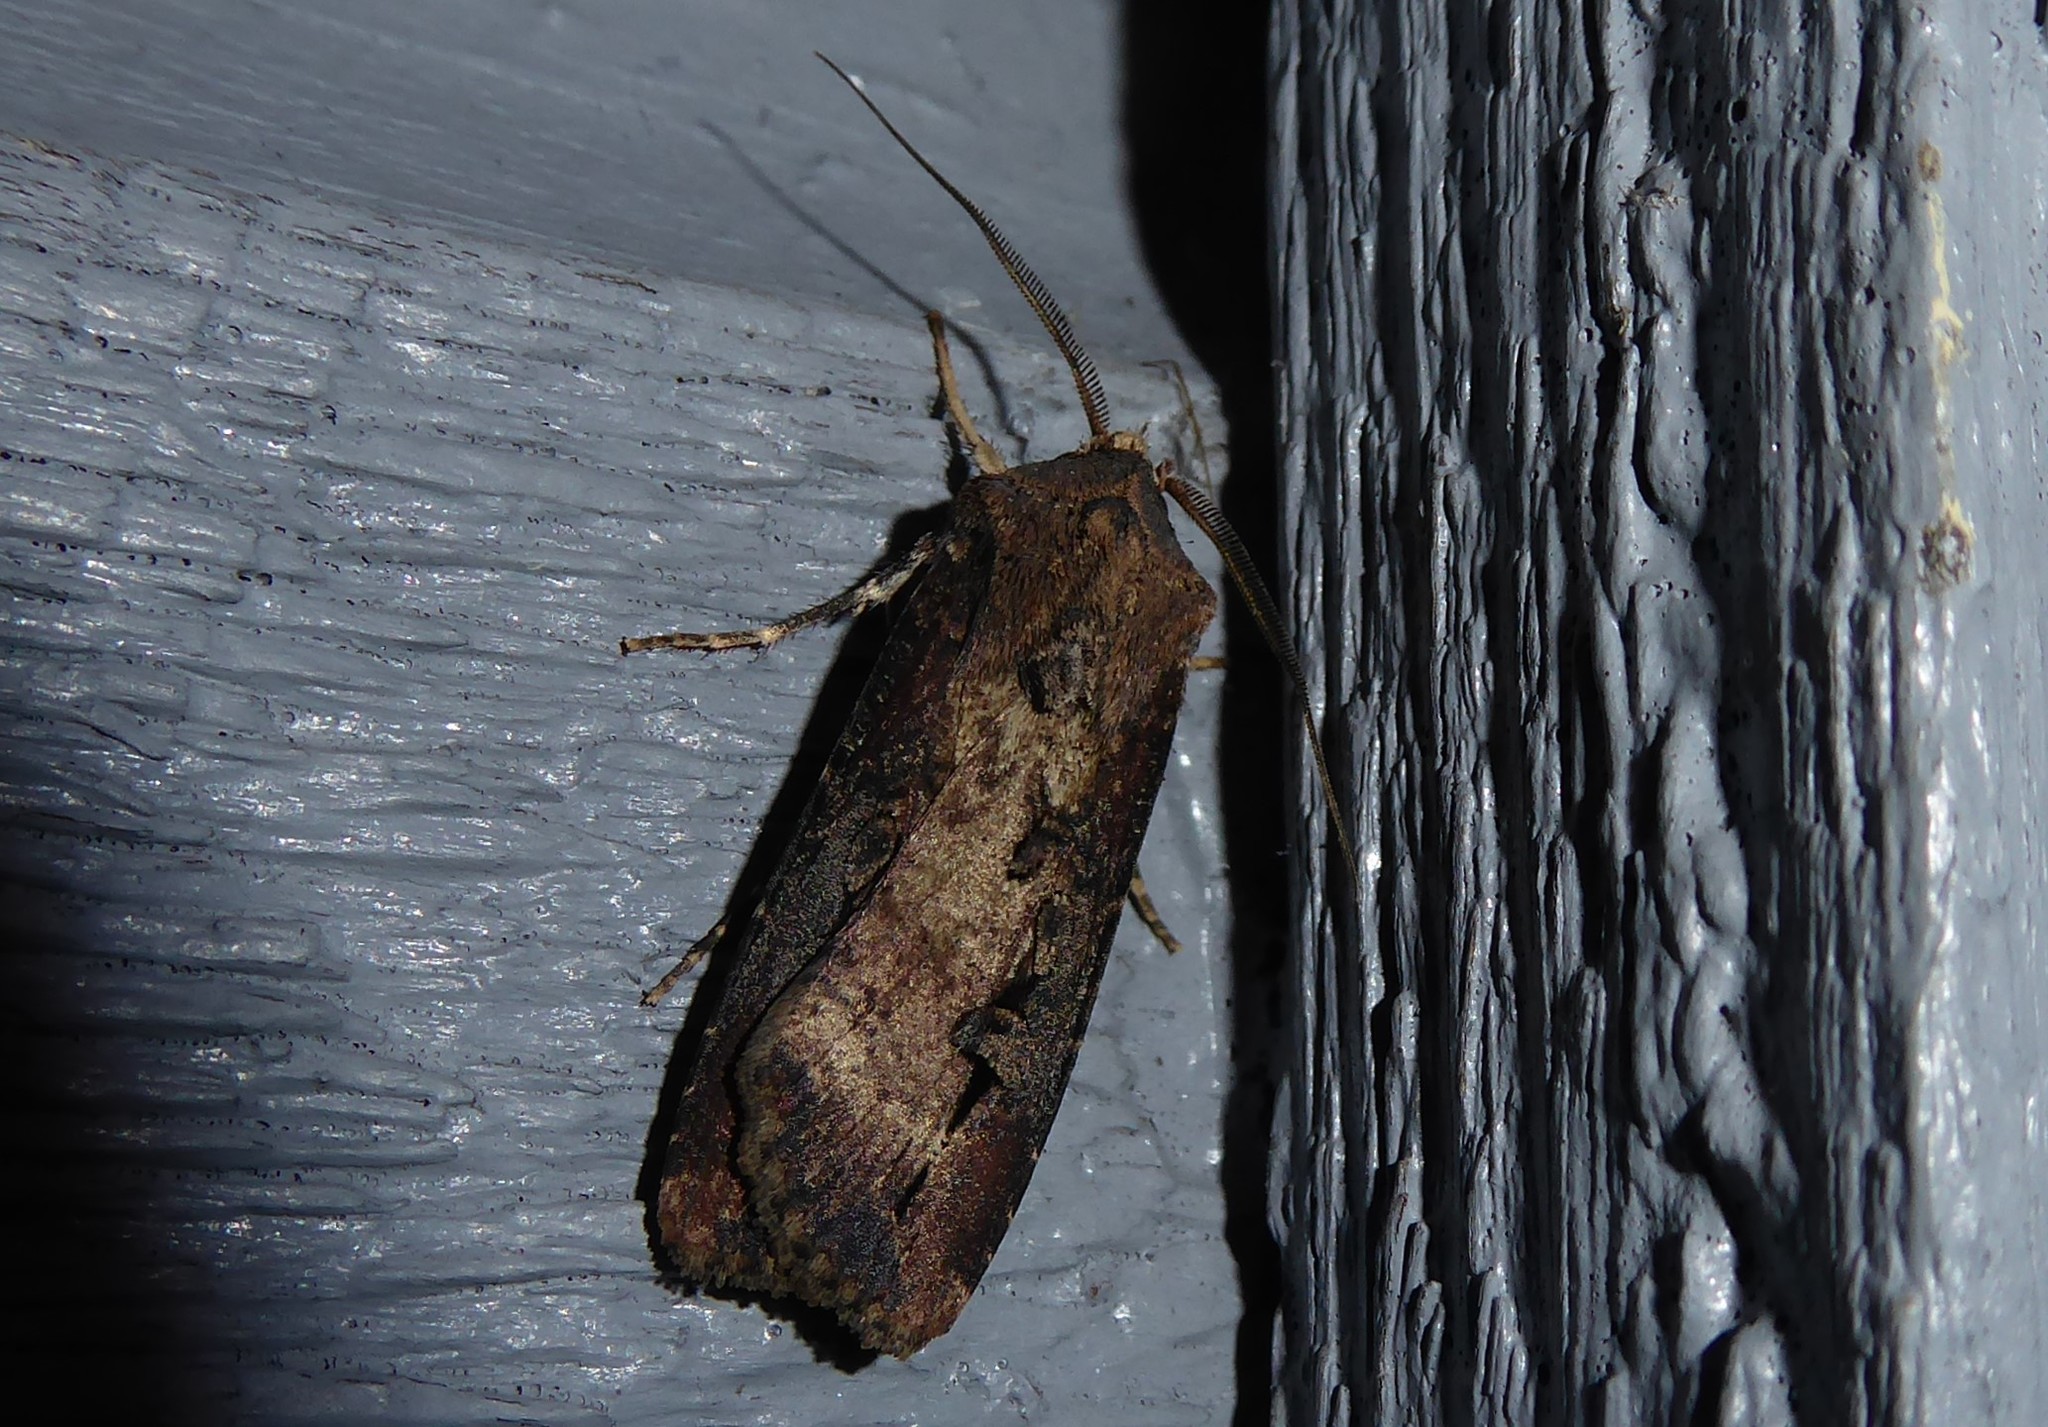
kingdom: Animalia
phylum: Arthropoda
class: Insecta
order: Lepidoptera
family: Noctuidae
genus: Agrotis
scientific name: Agrotis ipsilon
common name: Dark sword-grass
